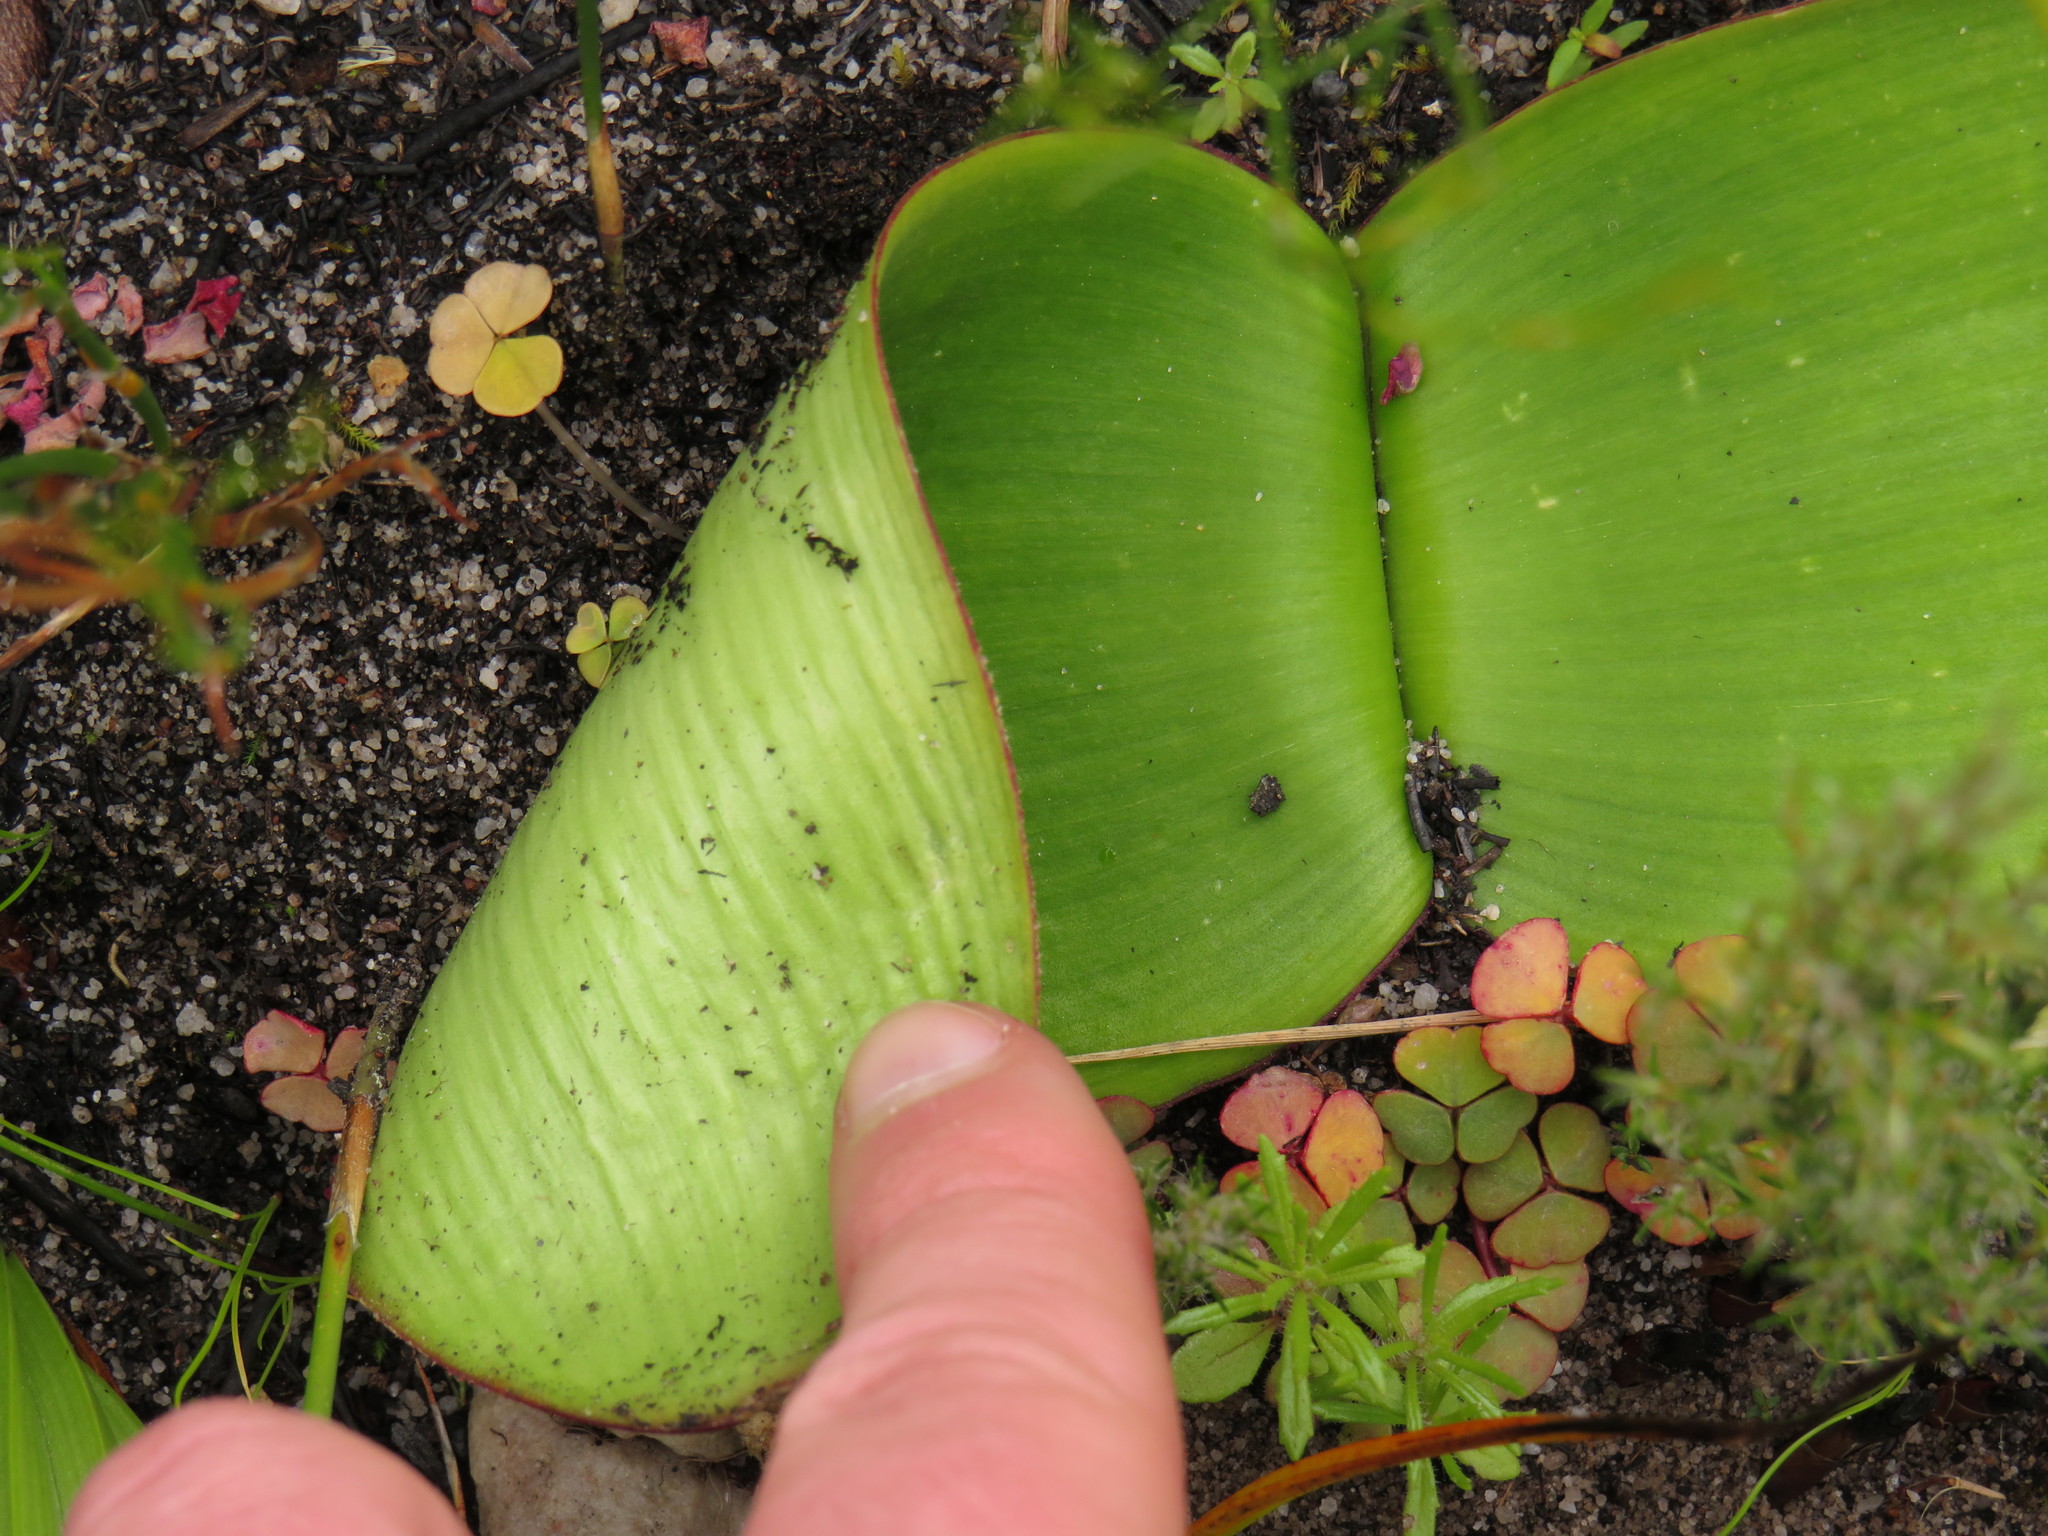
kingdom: Plantae
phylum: Tracheophyta
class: Liliopsida
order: Asparagales
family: Amaryllidaceae
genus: Haemanthus
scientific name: Haemanthus sanguineus
